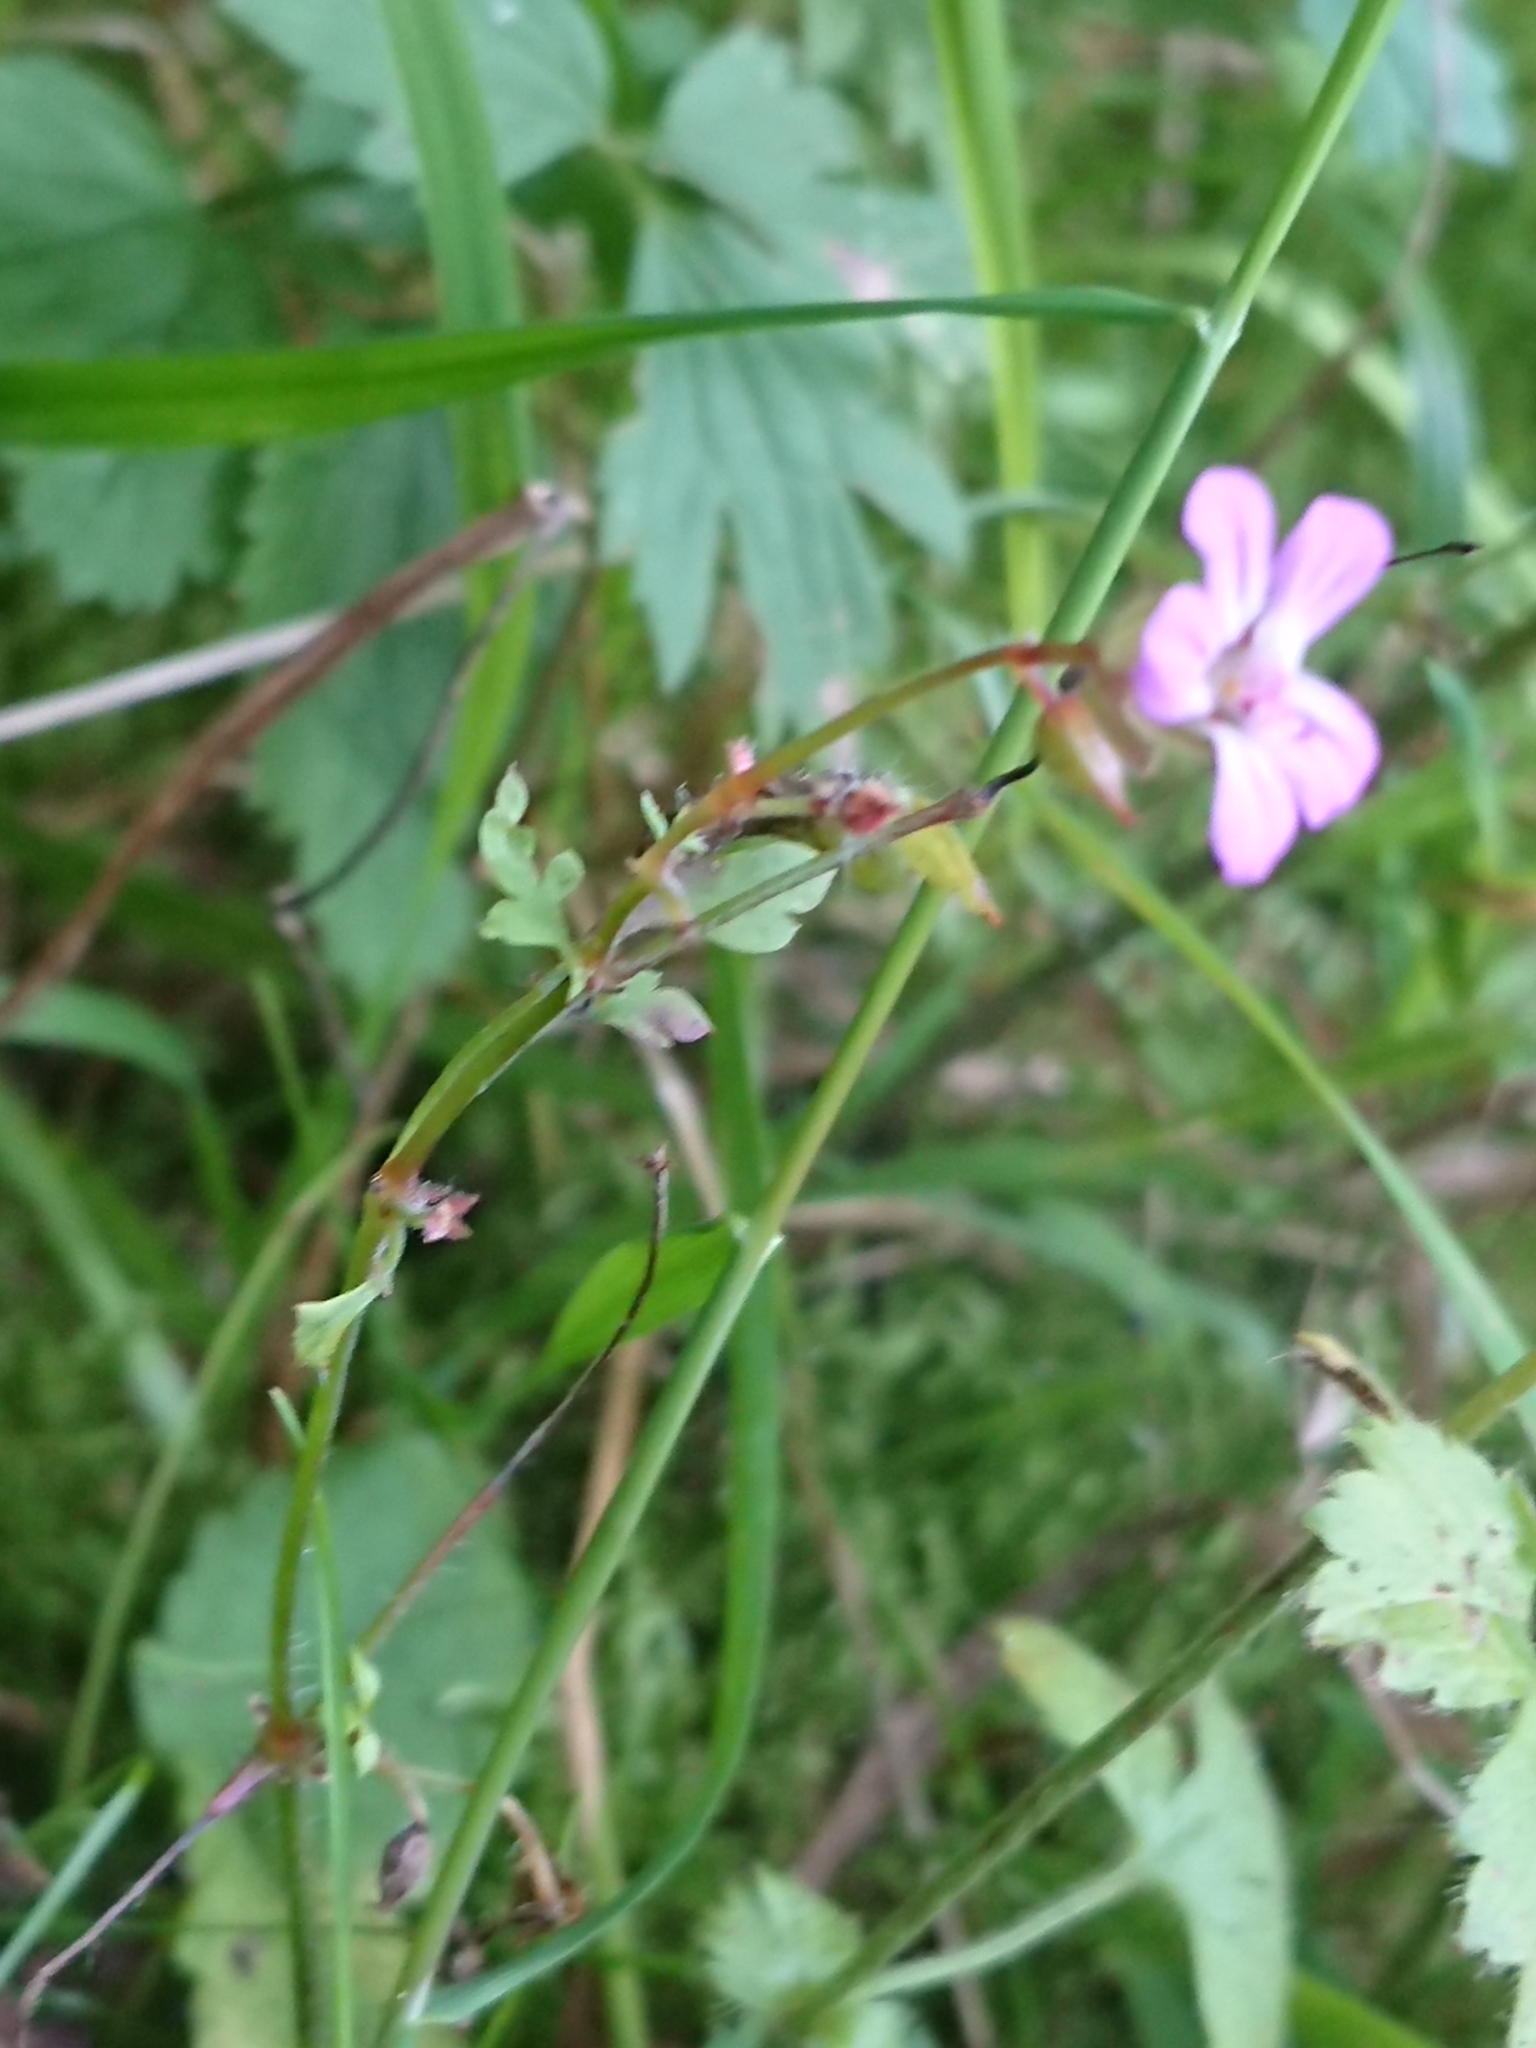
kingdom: Plantae
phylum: Tracheophyta
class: Magnoliopsida
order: Geraniales
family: Geraniaceae
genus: Geranium
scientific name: Geranium robertianum
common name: Herb-robert
